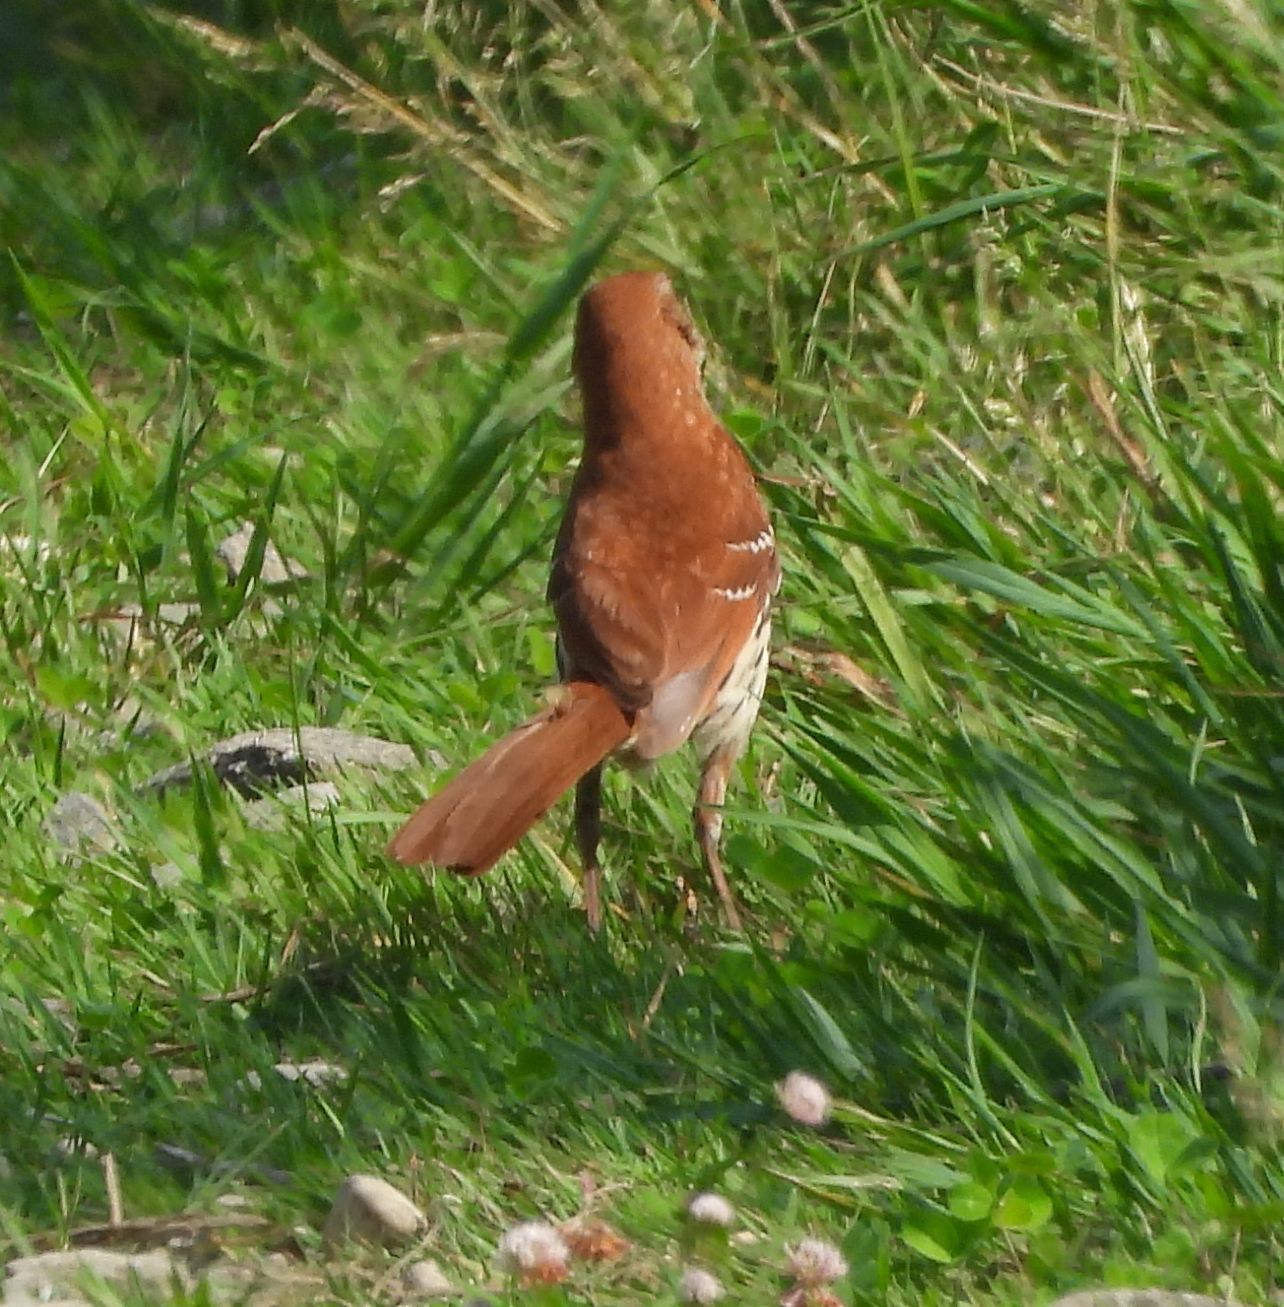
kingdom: Animalia
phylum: Chordata
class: Aves
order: Passeriformes
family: Mimidae
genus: Toxostoma
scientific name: Toxostoma rufum
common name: Brown thrasher
